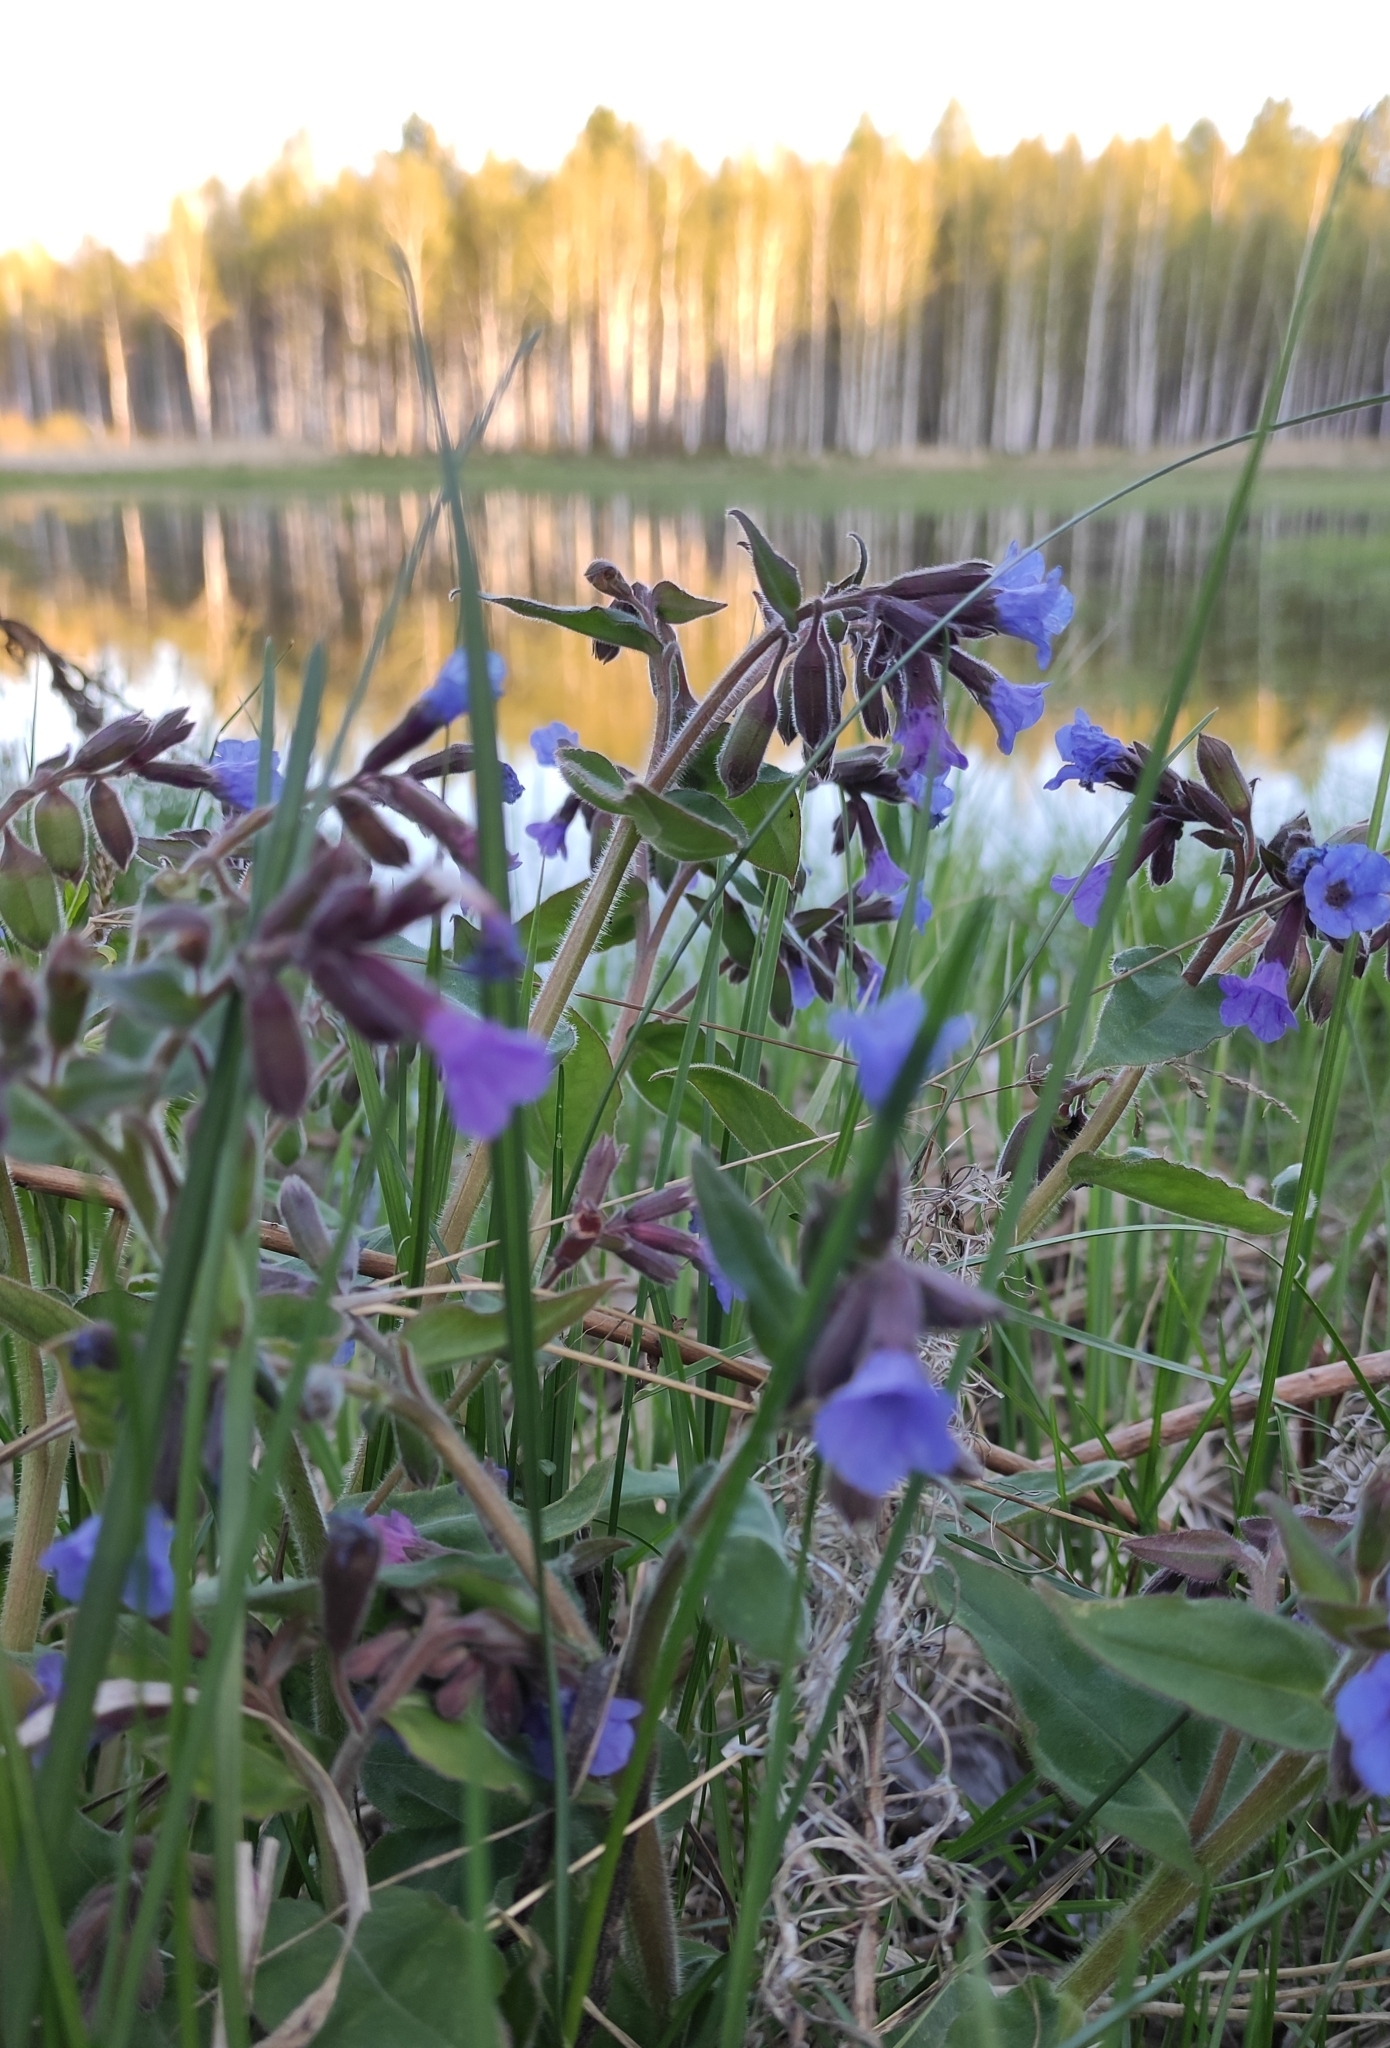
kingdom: Plantae
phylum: Tracheophyta
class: Magnoliopsida
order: Boraginales
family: Boraginaceae
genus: Pulmonaria
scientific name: Pulmonaria mollis
